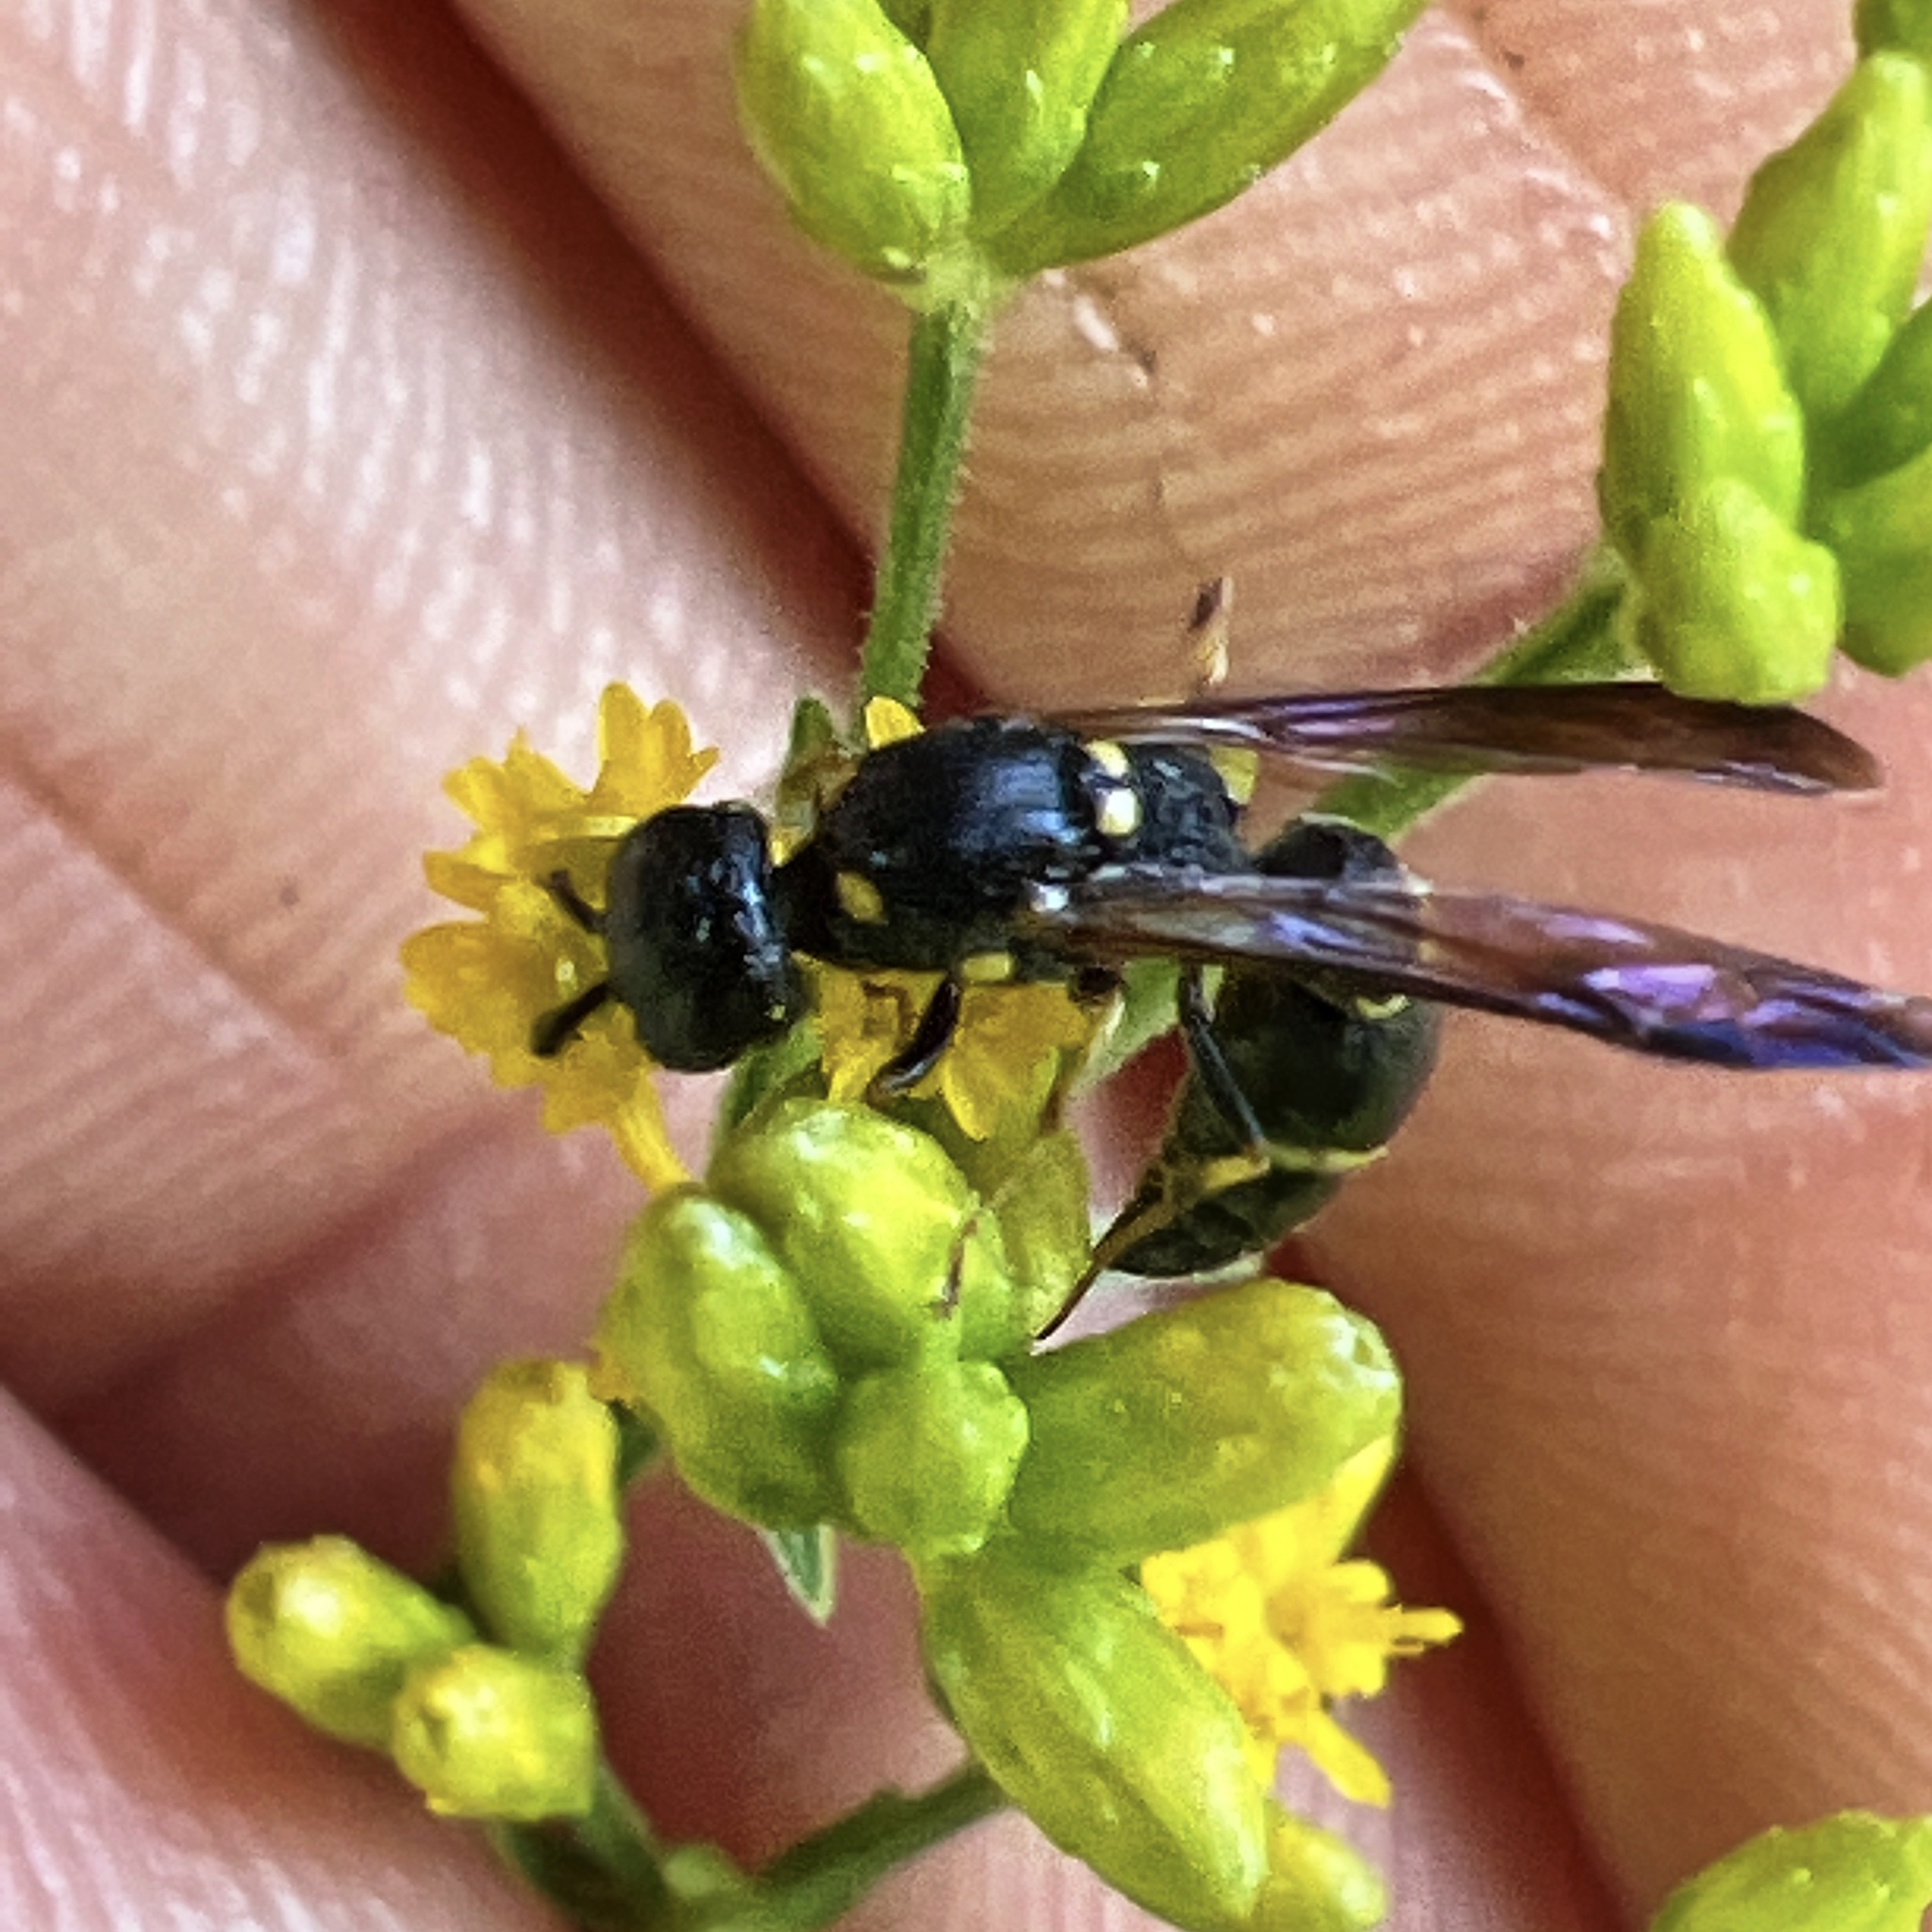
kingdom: Animalia
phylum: Arthropoda
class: Insecta
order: Hymenoptera
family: Eumenidae
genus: Symmorphus
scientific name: Symmorphus
